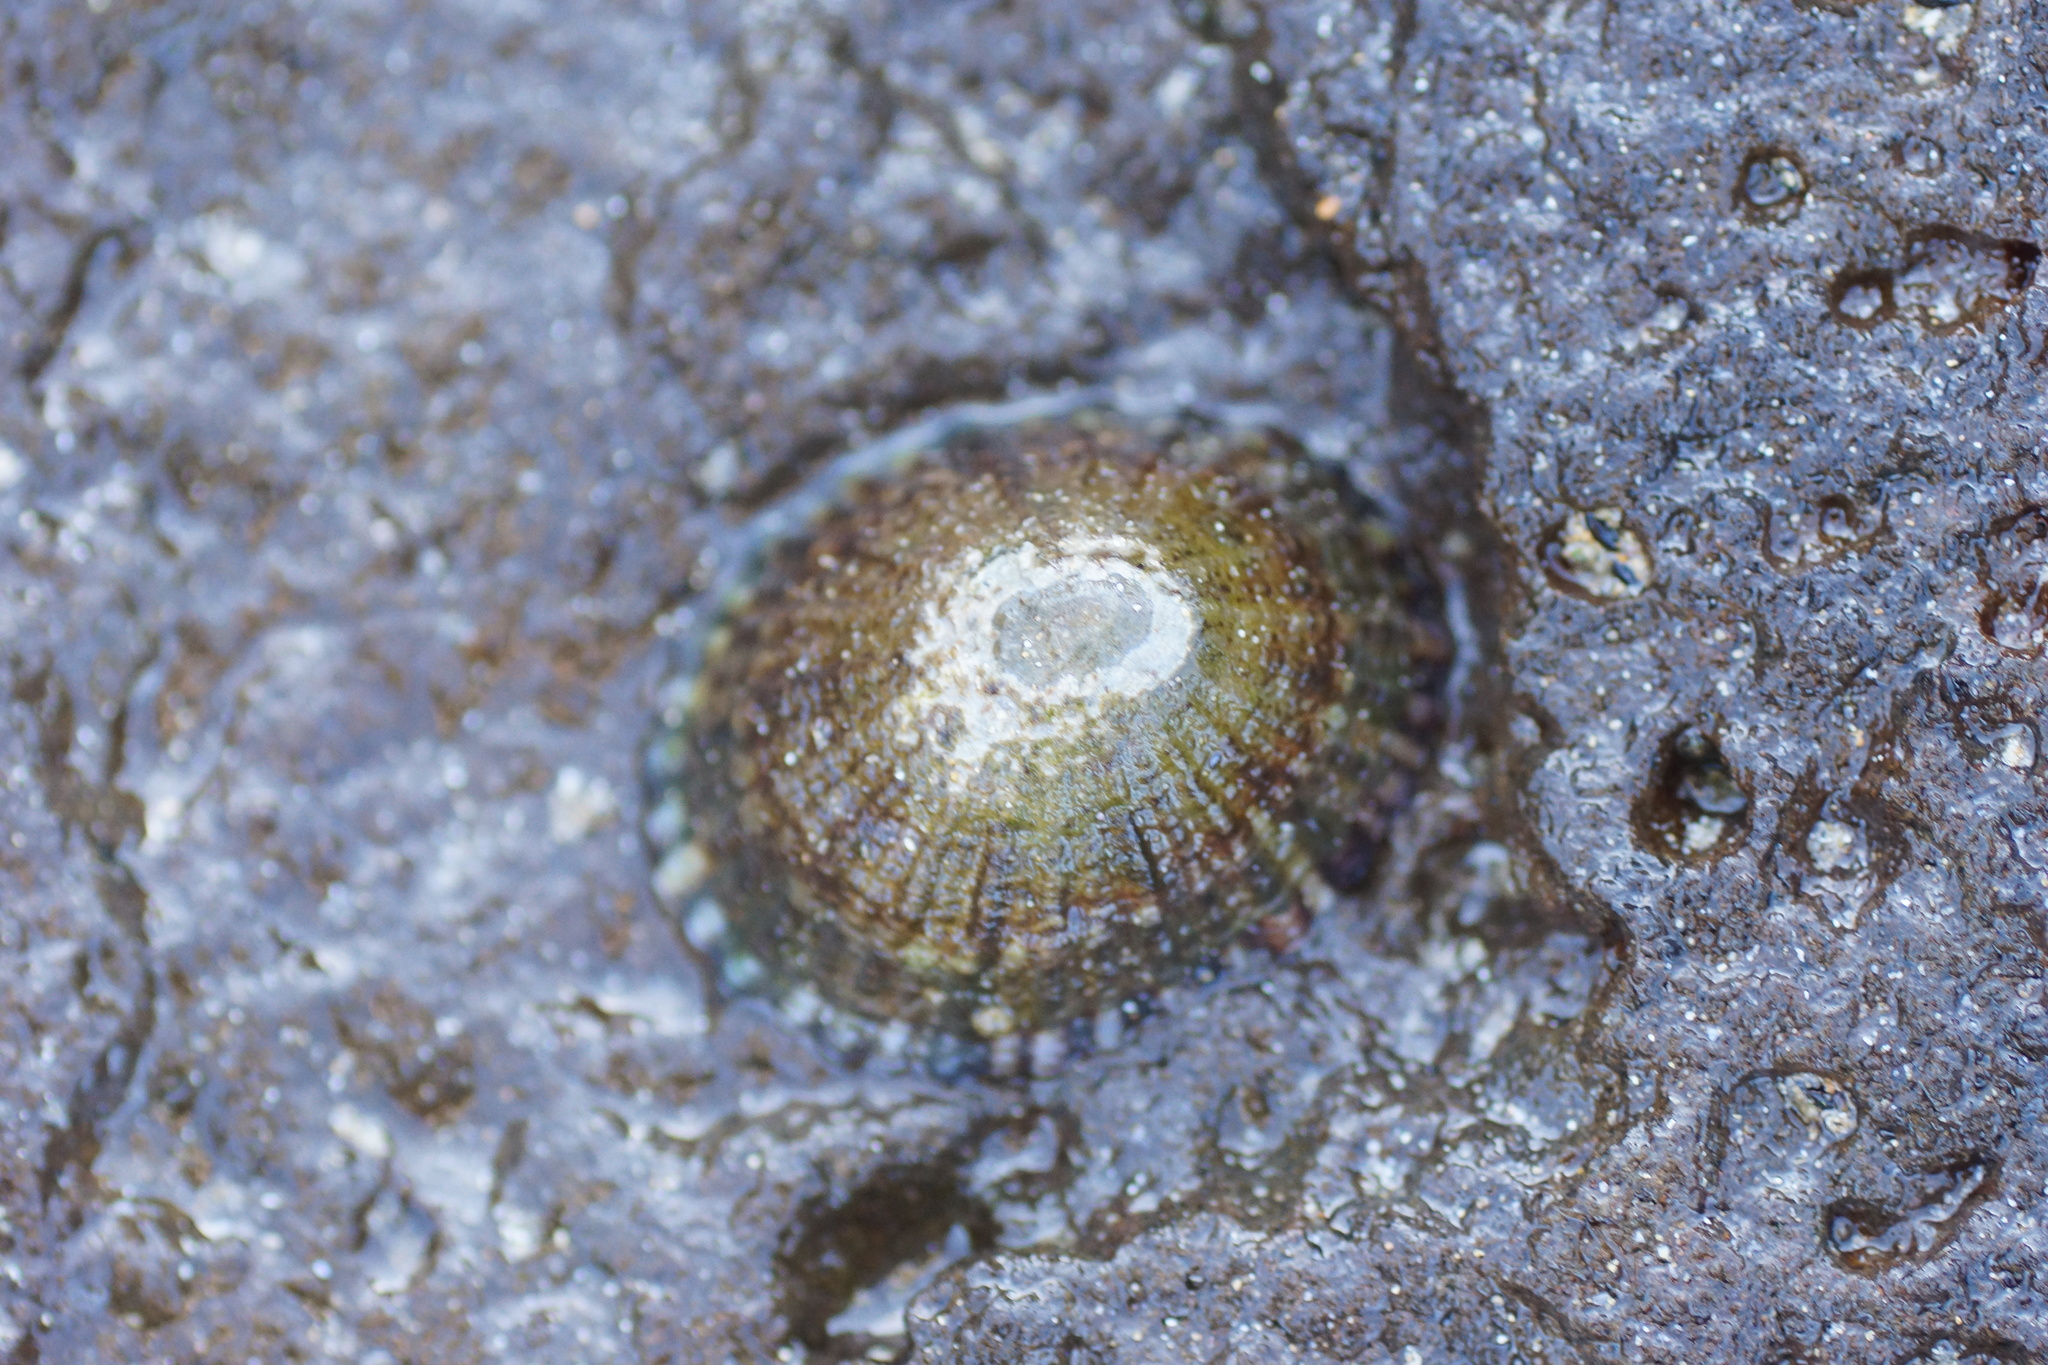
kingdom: Animalia
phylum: Mollusca
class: Gastropoda
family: Nacellidae
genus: Cellana
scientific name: Cellana tramoserica
